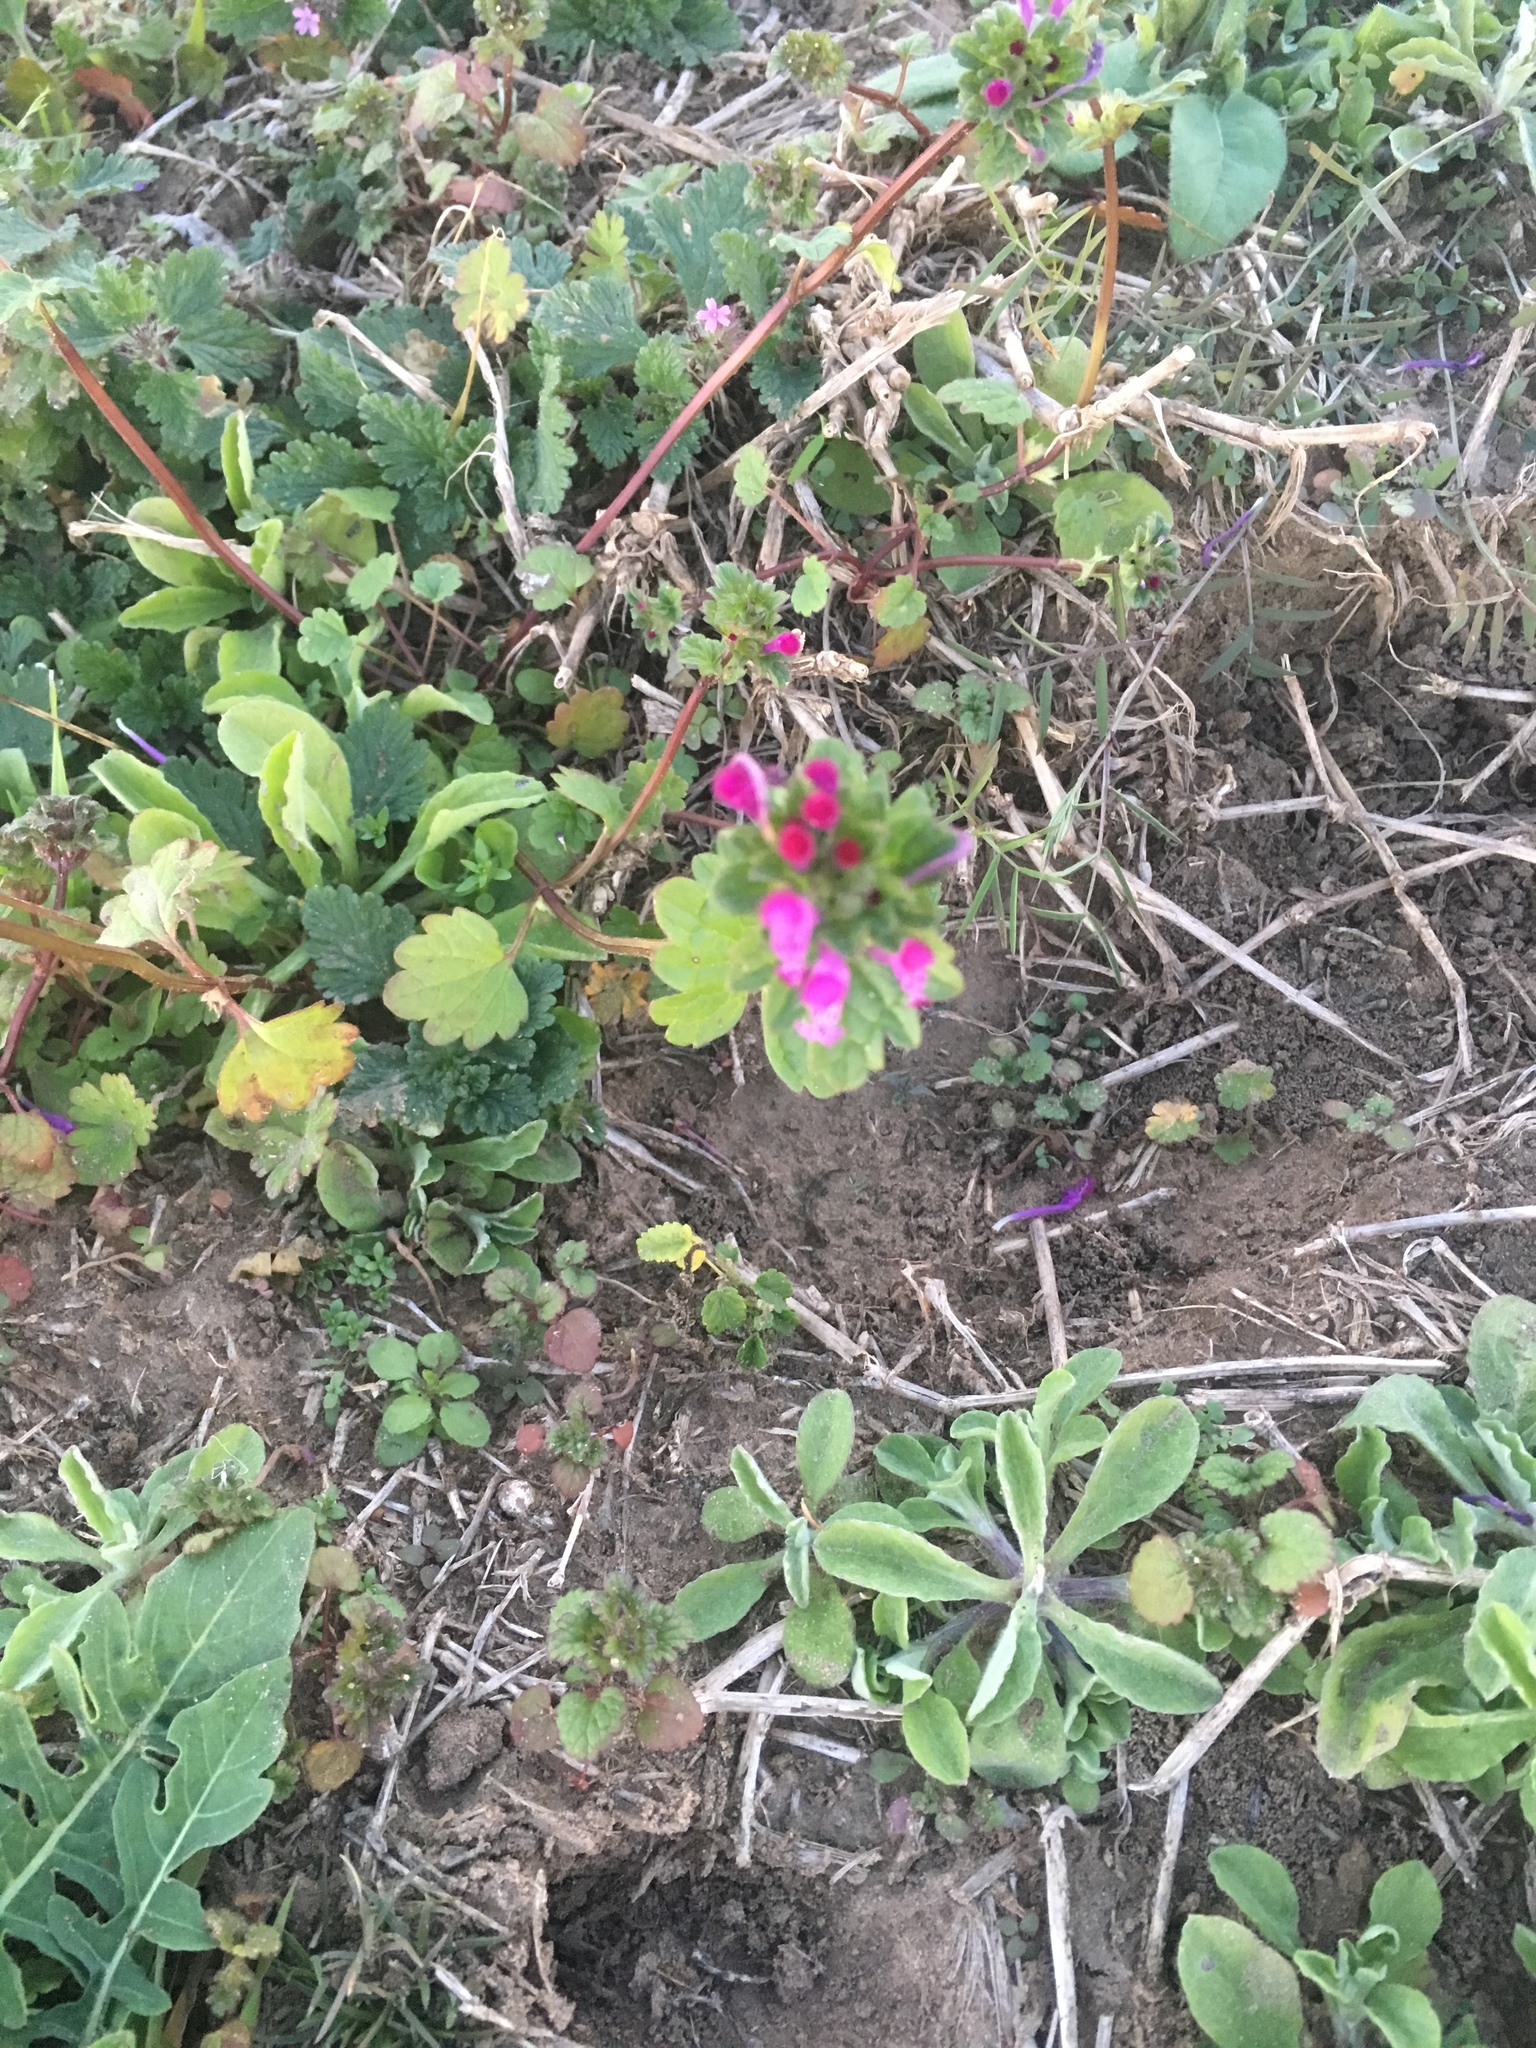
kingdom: Plantae
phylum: Tracheophyta
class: Magnoliopsida
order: Lamiales
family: Lamiaceae
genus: Lamium
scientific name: Lamium amplexicaule
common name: Henbit dead-nettle
